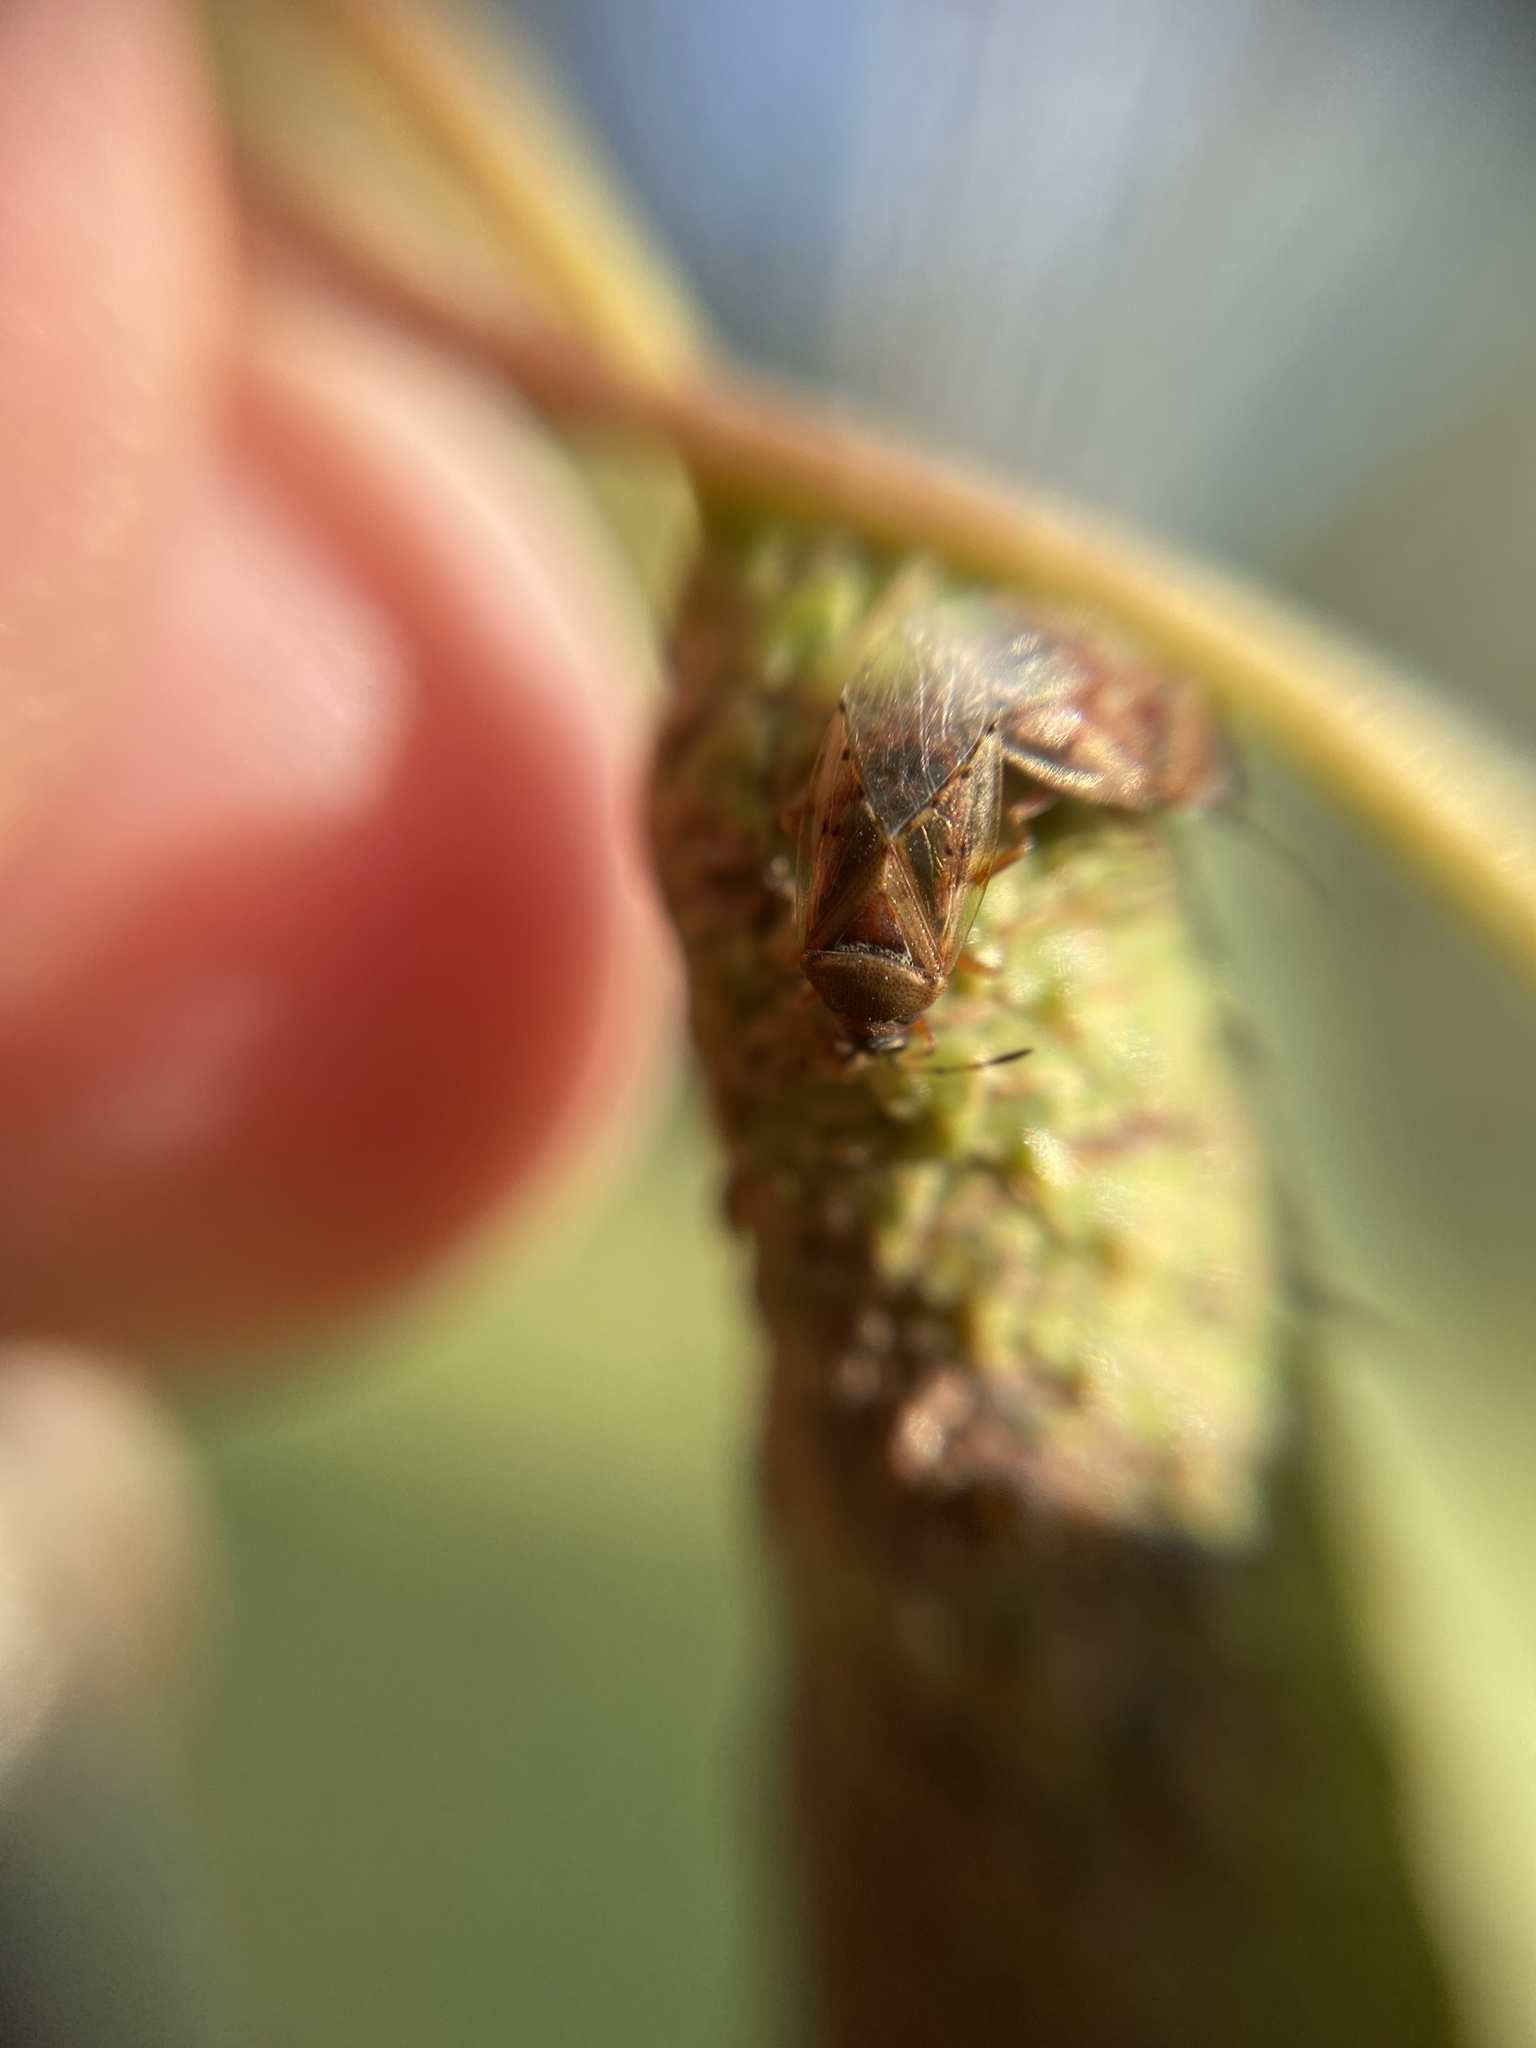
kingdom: Animalia
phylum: Arthropoda
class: Insecta
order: Hemiptera
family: Lygaeidae
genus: Kleidocerys
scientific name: Kleidocerys resedae
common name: Birch catkin bug
